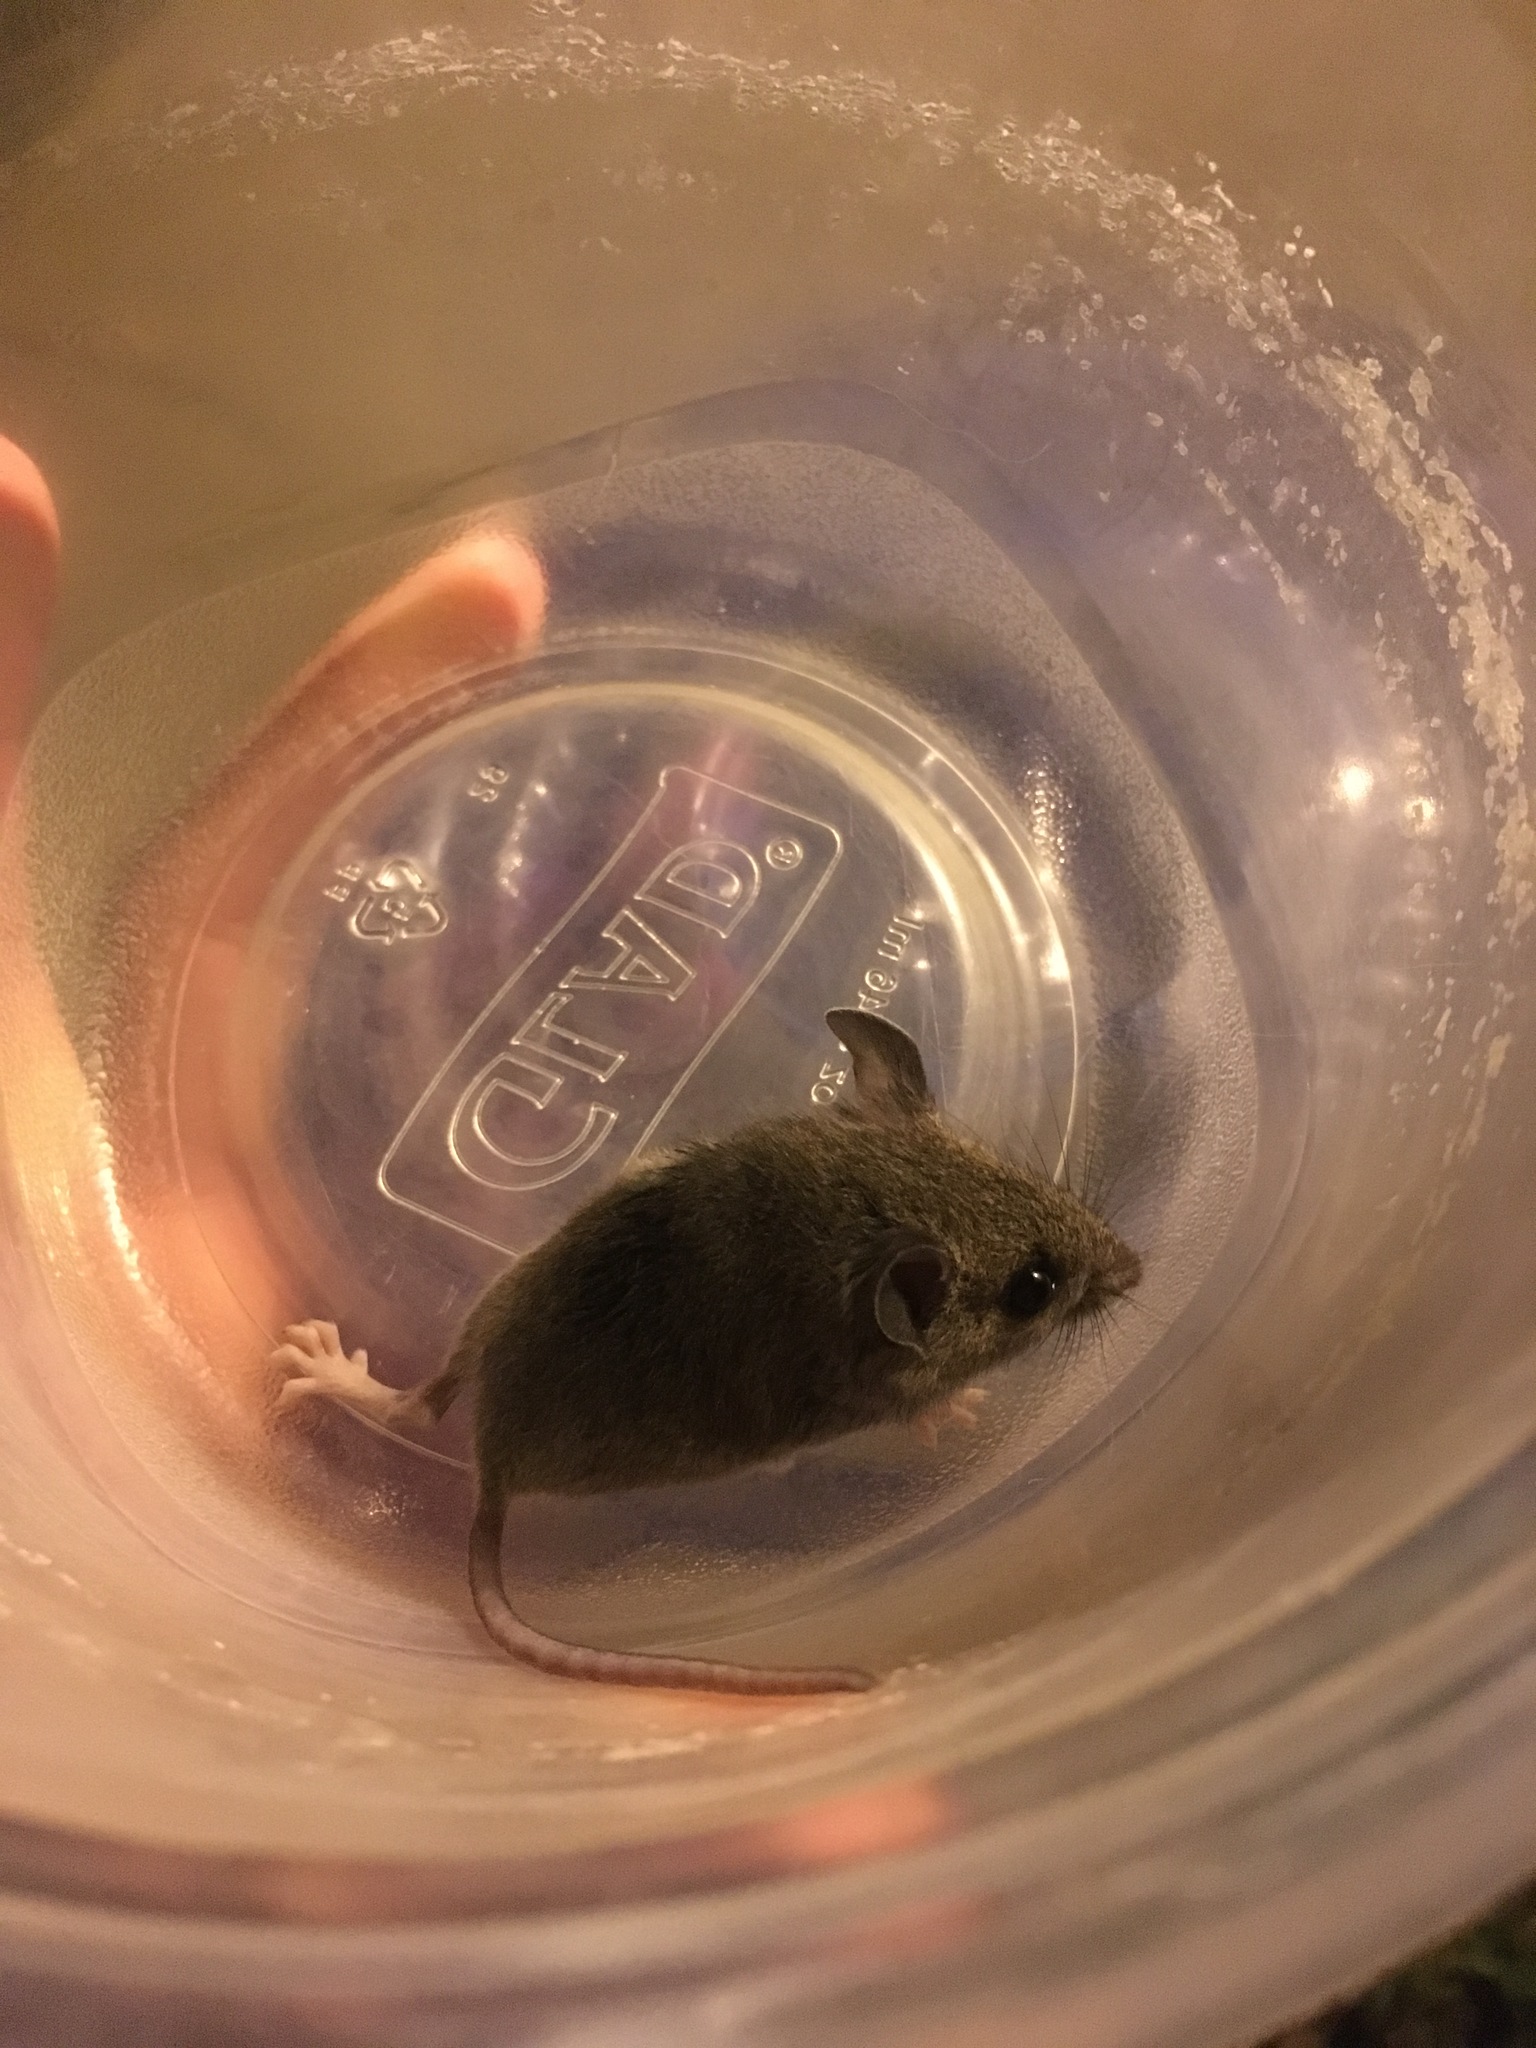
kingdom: Animalia
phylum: Chordata
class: Mammalia
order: Rodentia
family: Cricetidae
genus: Peromyscus
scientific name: Peromyscus leucopus
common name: White-footed deermouse
